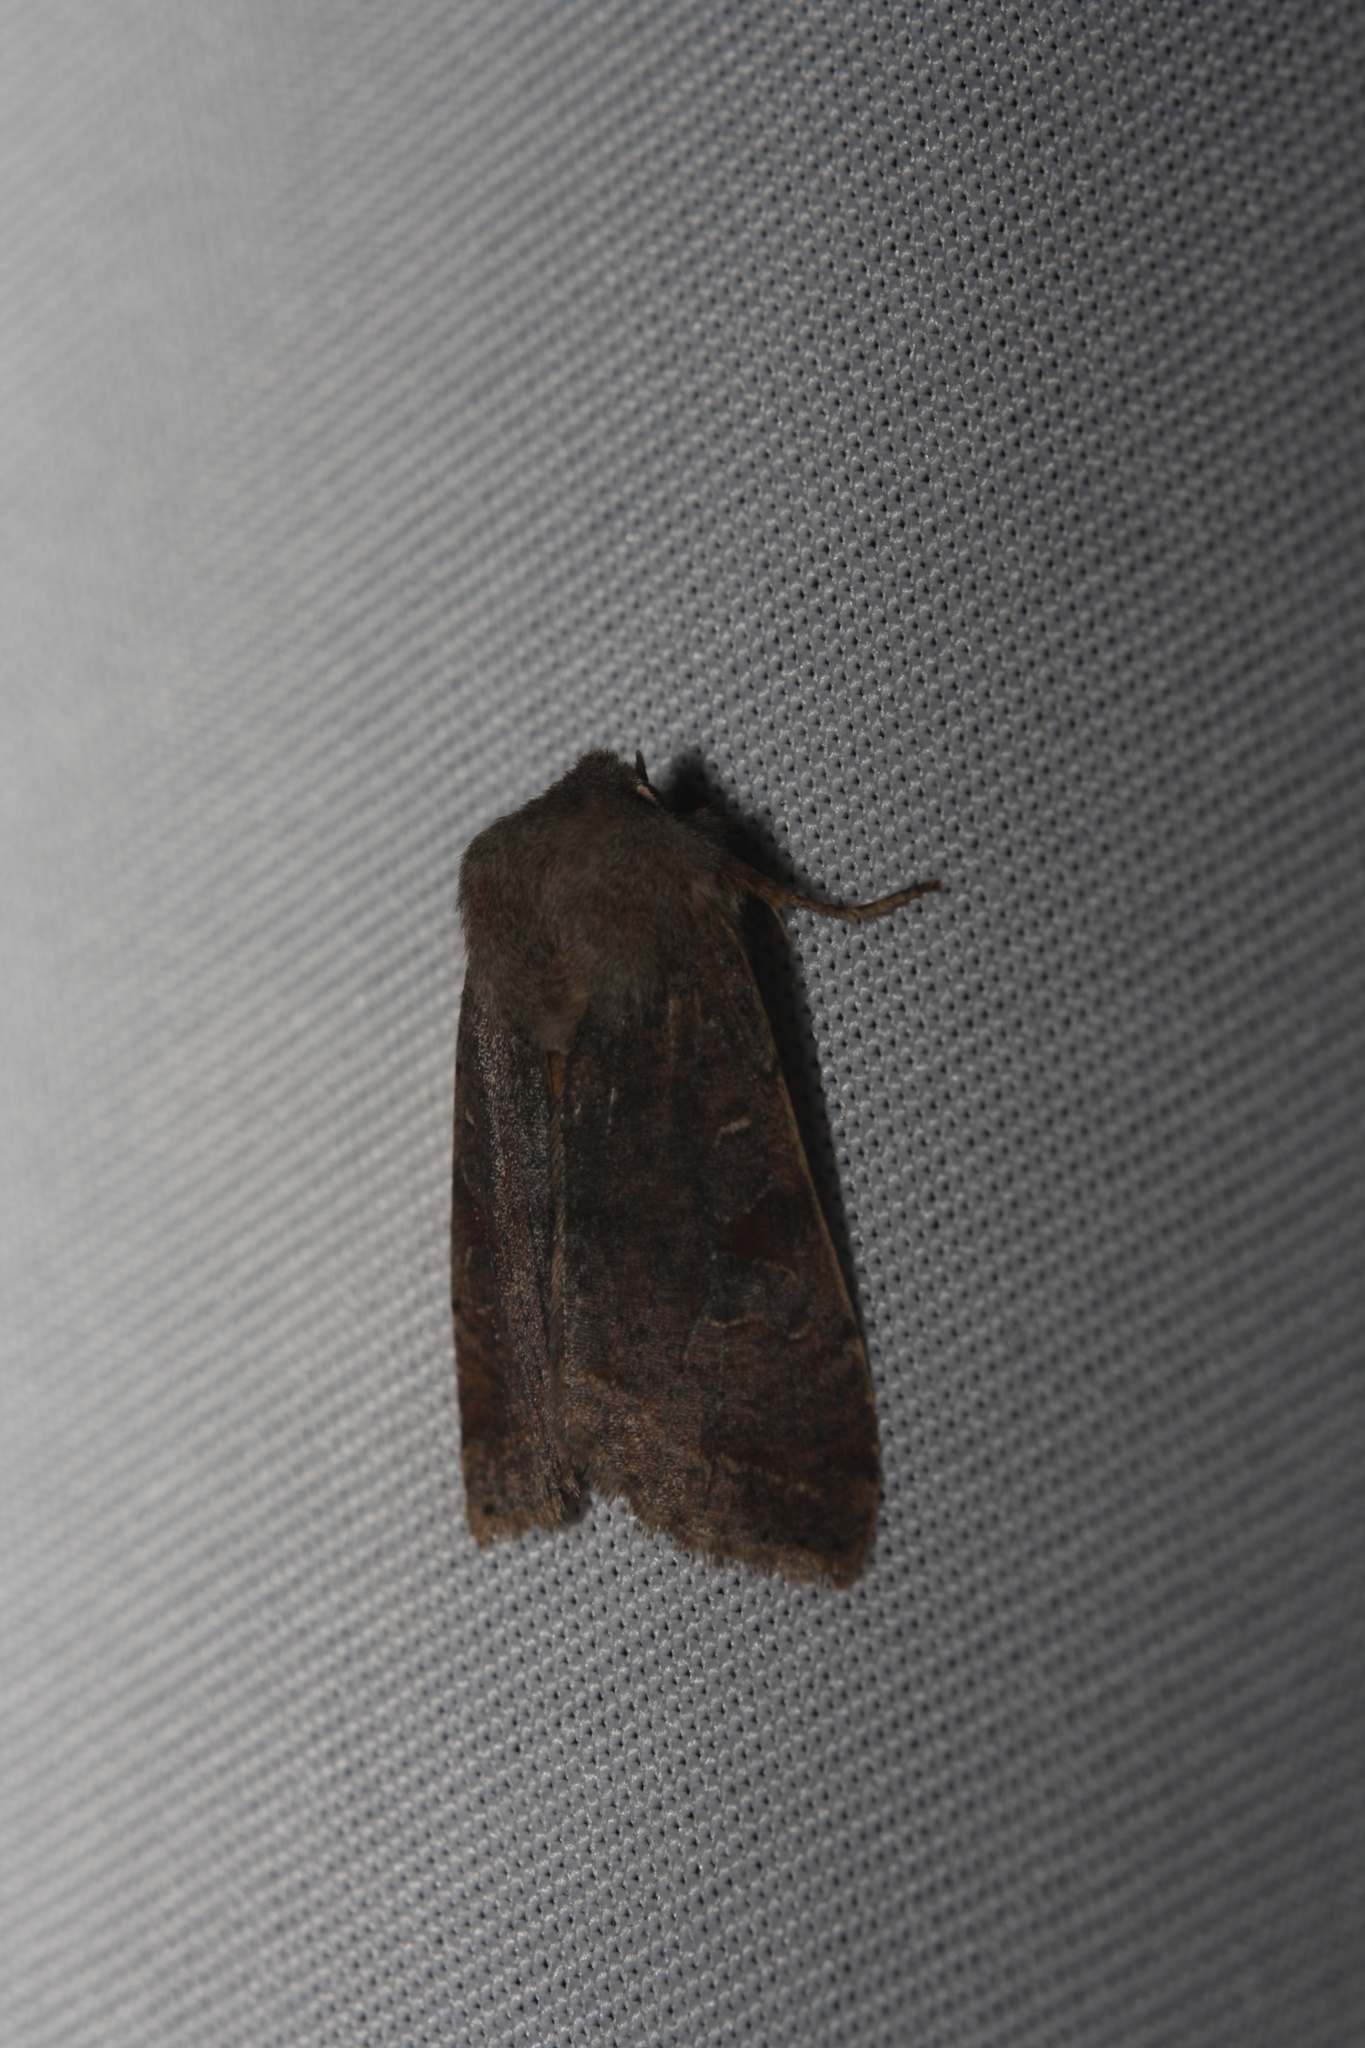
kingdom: Animalia
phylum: Arthropoda
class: Insecta
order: Lepidoptera
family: Noctuidae
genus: Orthosia
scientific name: Orthosia incerta
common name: Clouded drab
